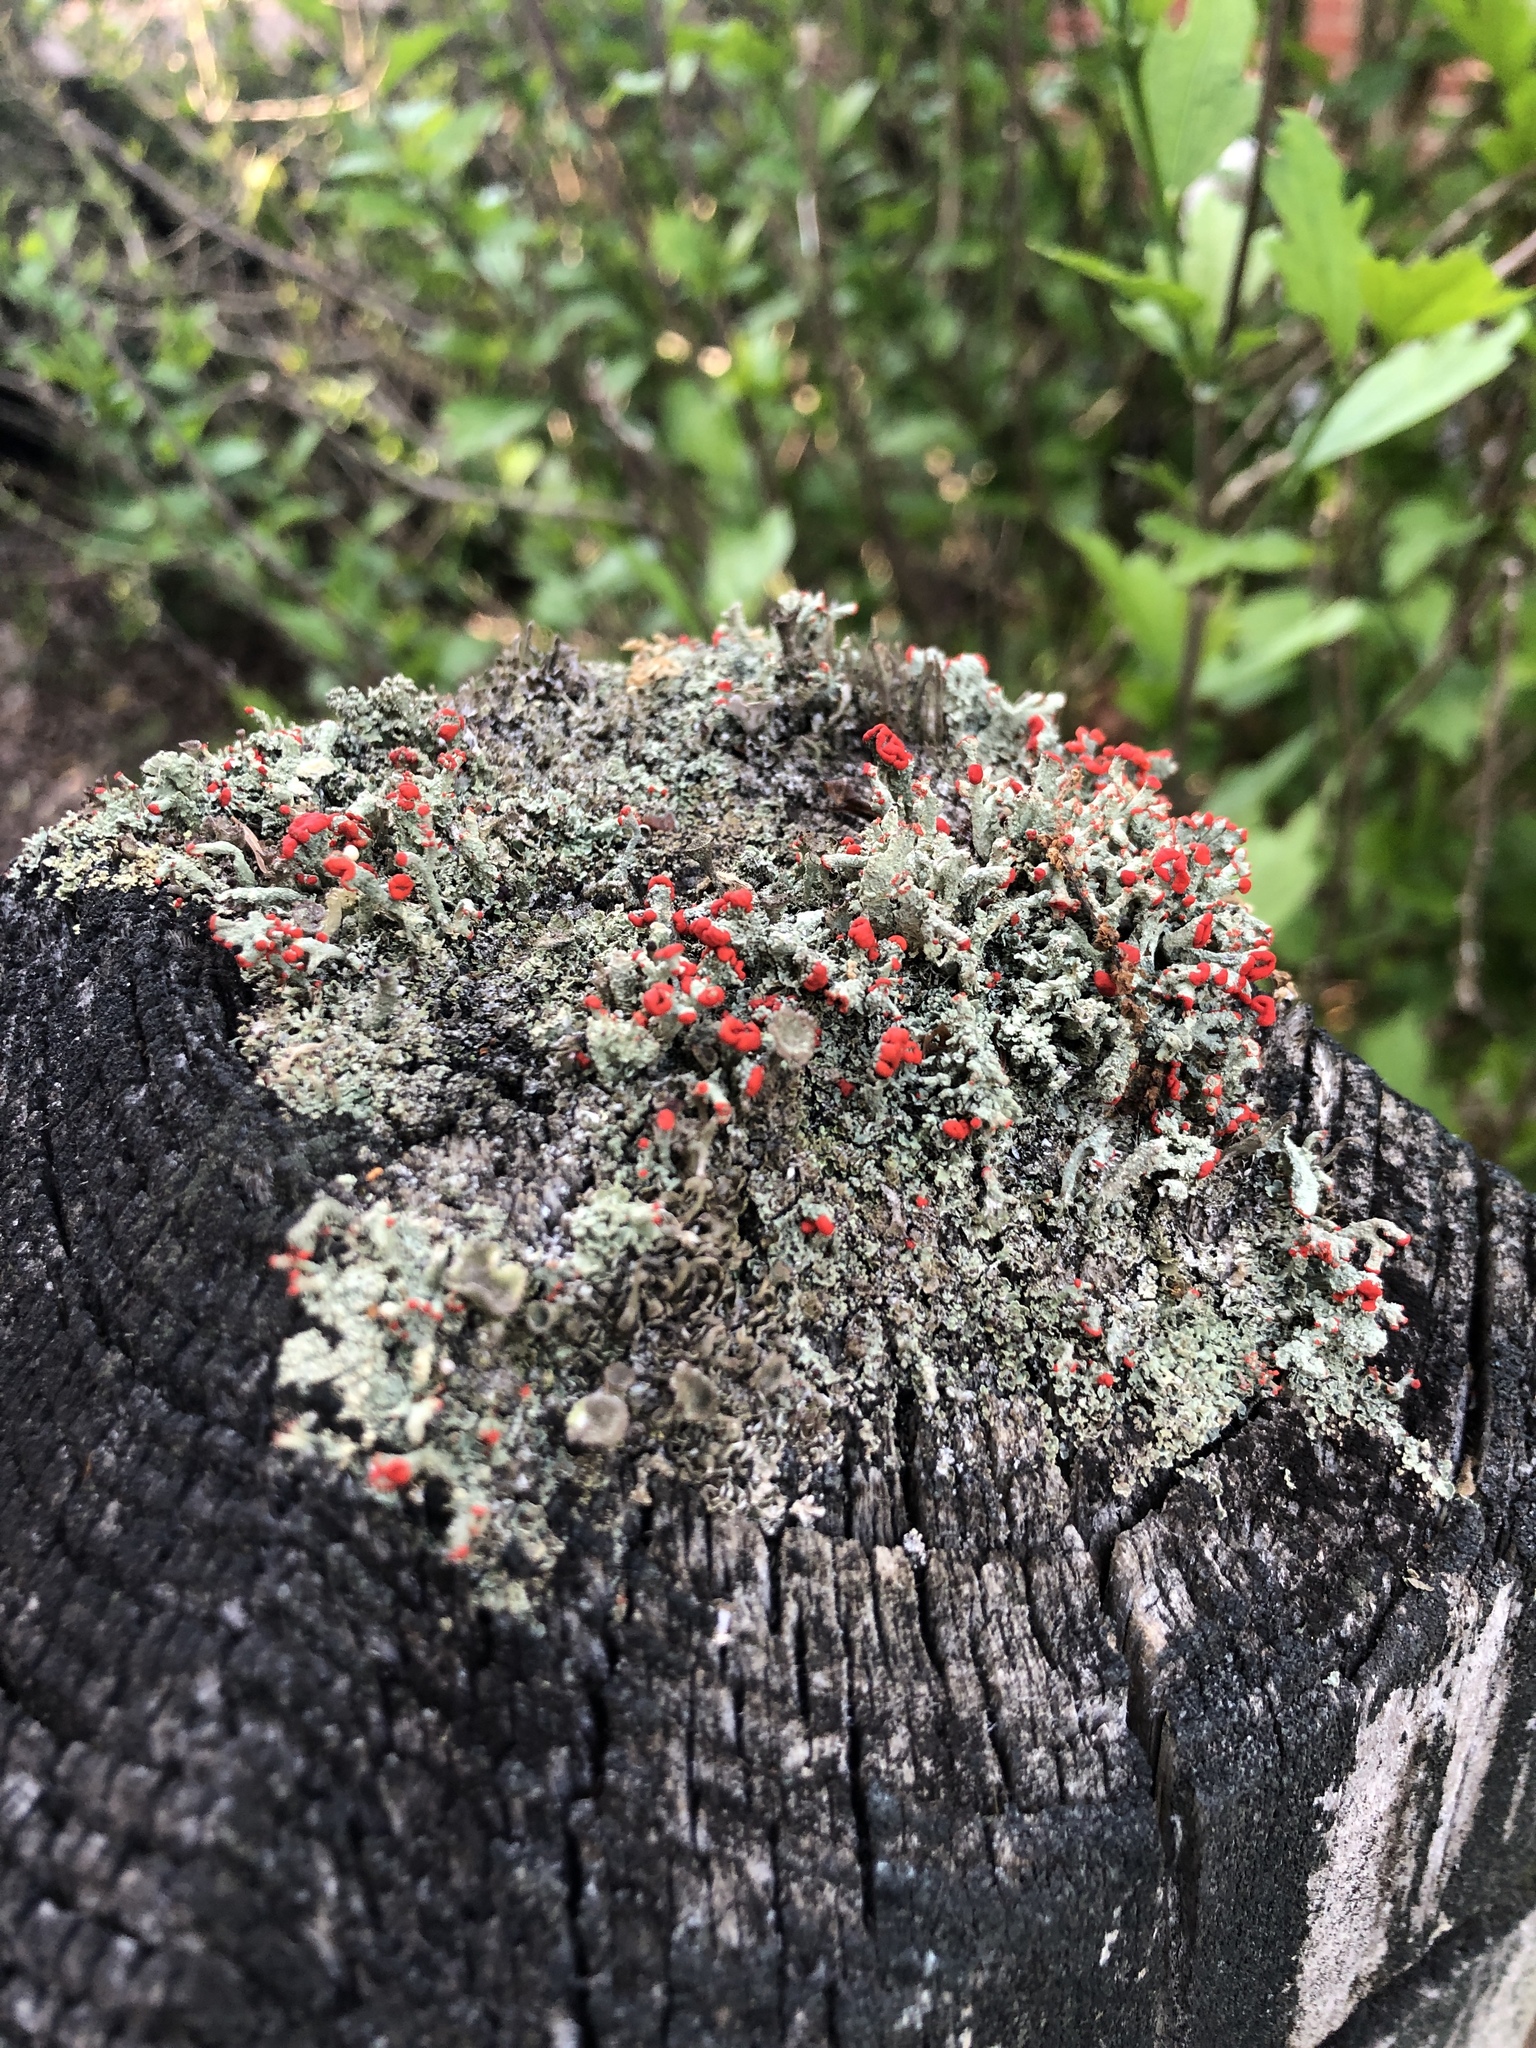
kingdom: Fungi
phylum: Ascomycota
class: Lecanoromycetes
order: Lecanorales
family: Cladoniaceae
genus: Cladonia
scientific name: Cladonia cristatella
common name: British soldier lichen
